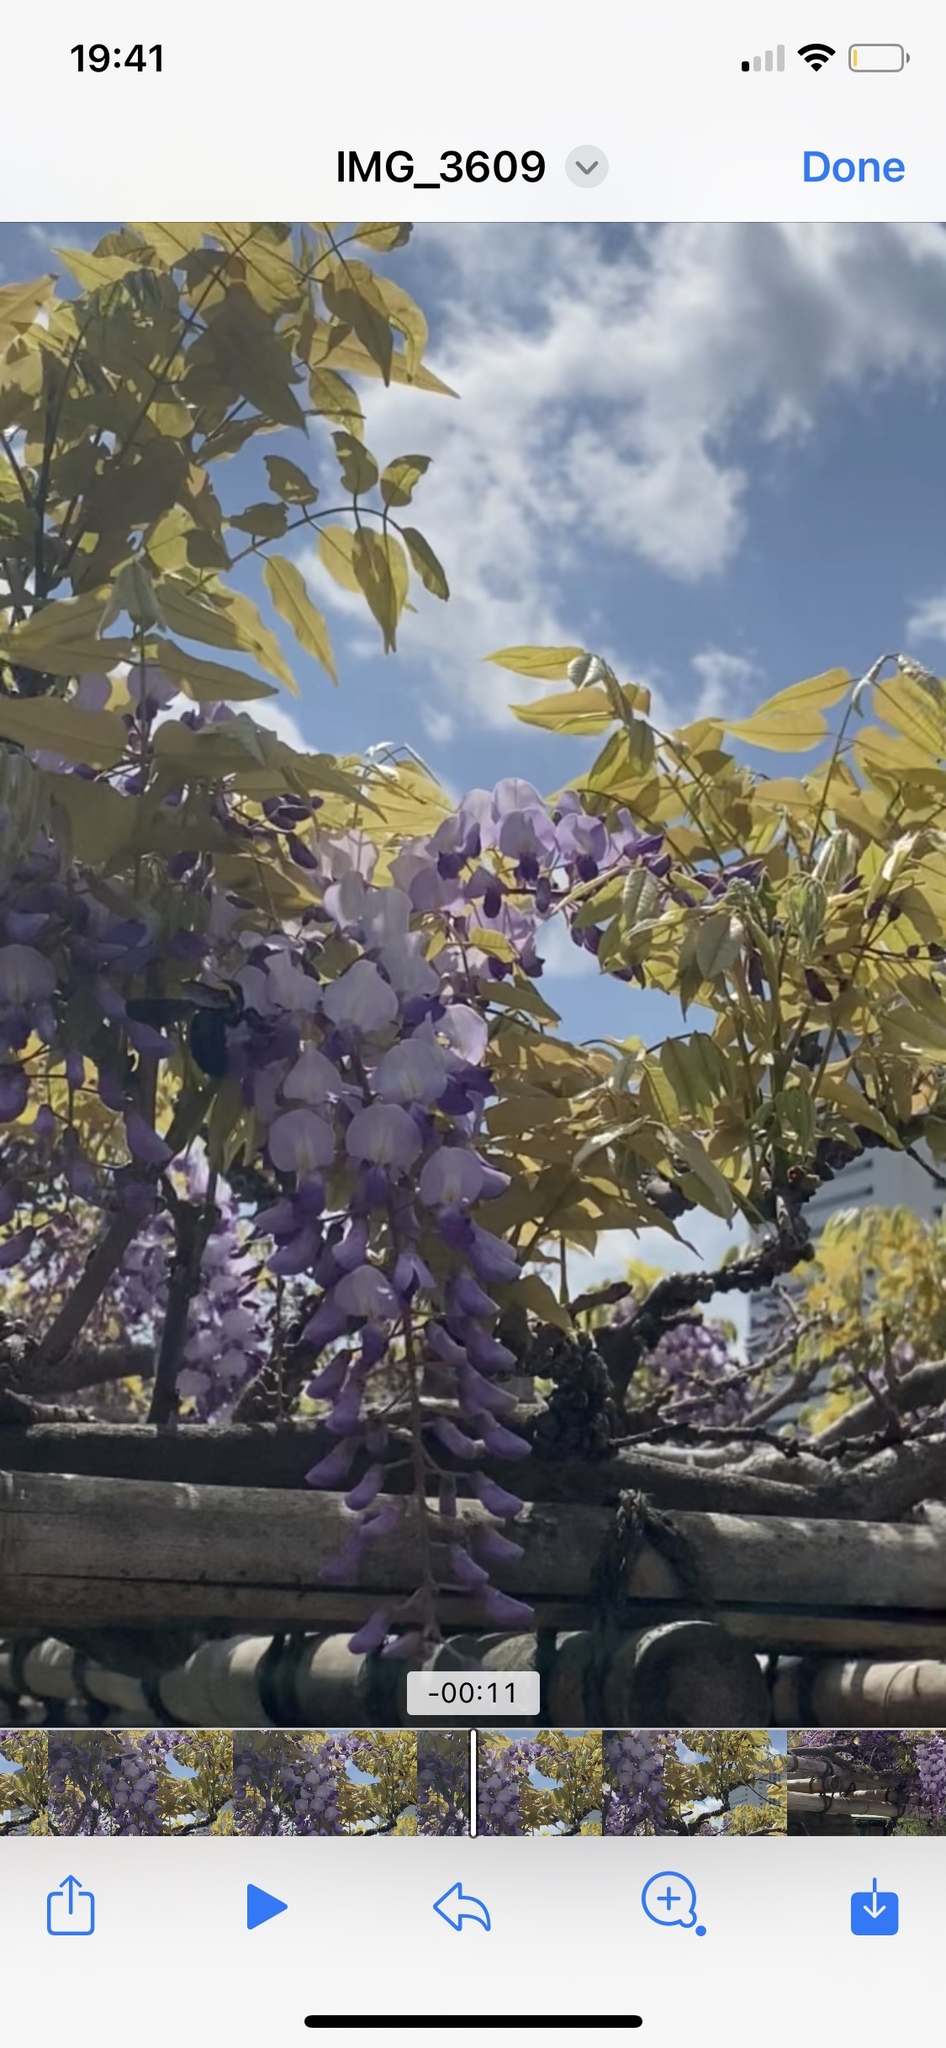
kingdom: Animalia
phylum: Arthropoda
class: Insecta
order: Hymenoptera
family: Apidae
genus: Xylocopa
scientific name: Xylocopa appendiculata
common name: Japanese carpenter bee
